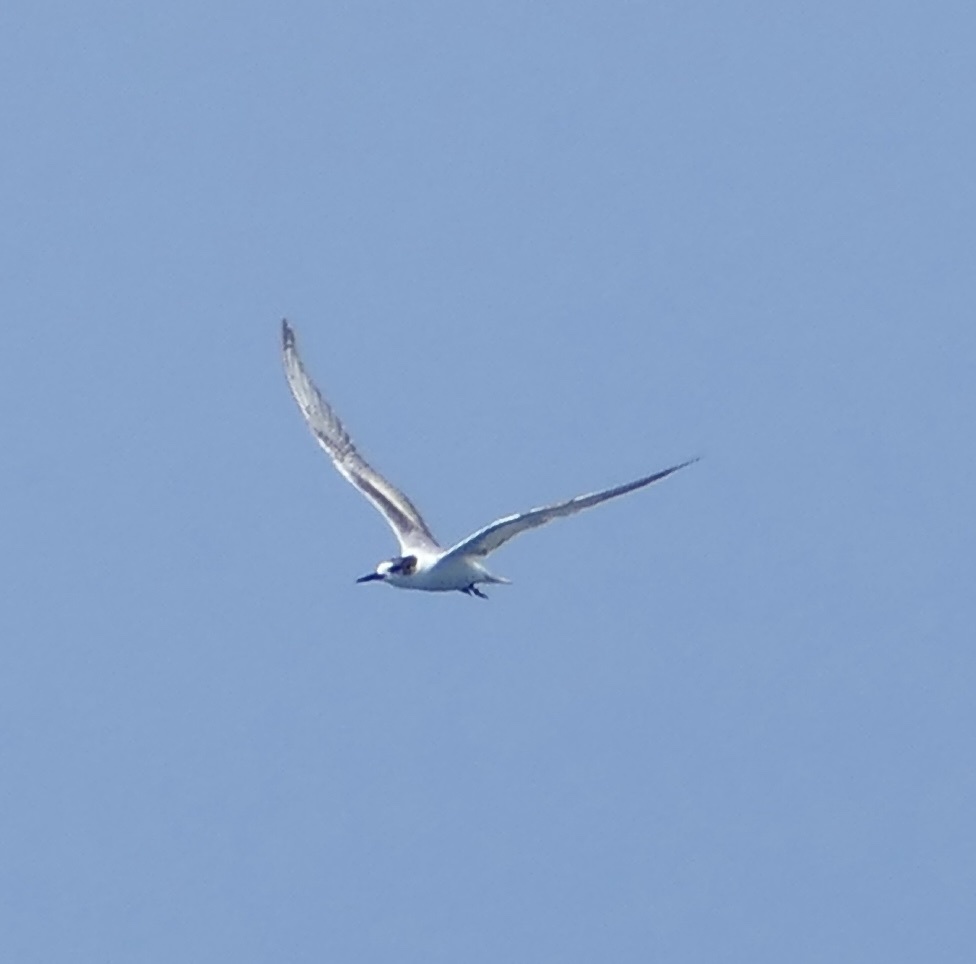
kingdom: Animalia
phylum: Chordata
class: Aves
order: Charadriiformes
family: Laridae
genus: Sterna
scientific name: Sterna hirundo
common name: Common tern
